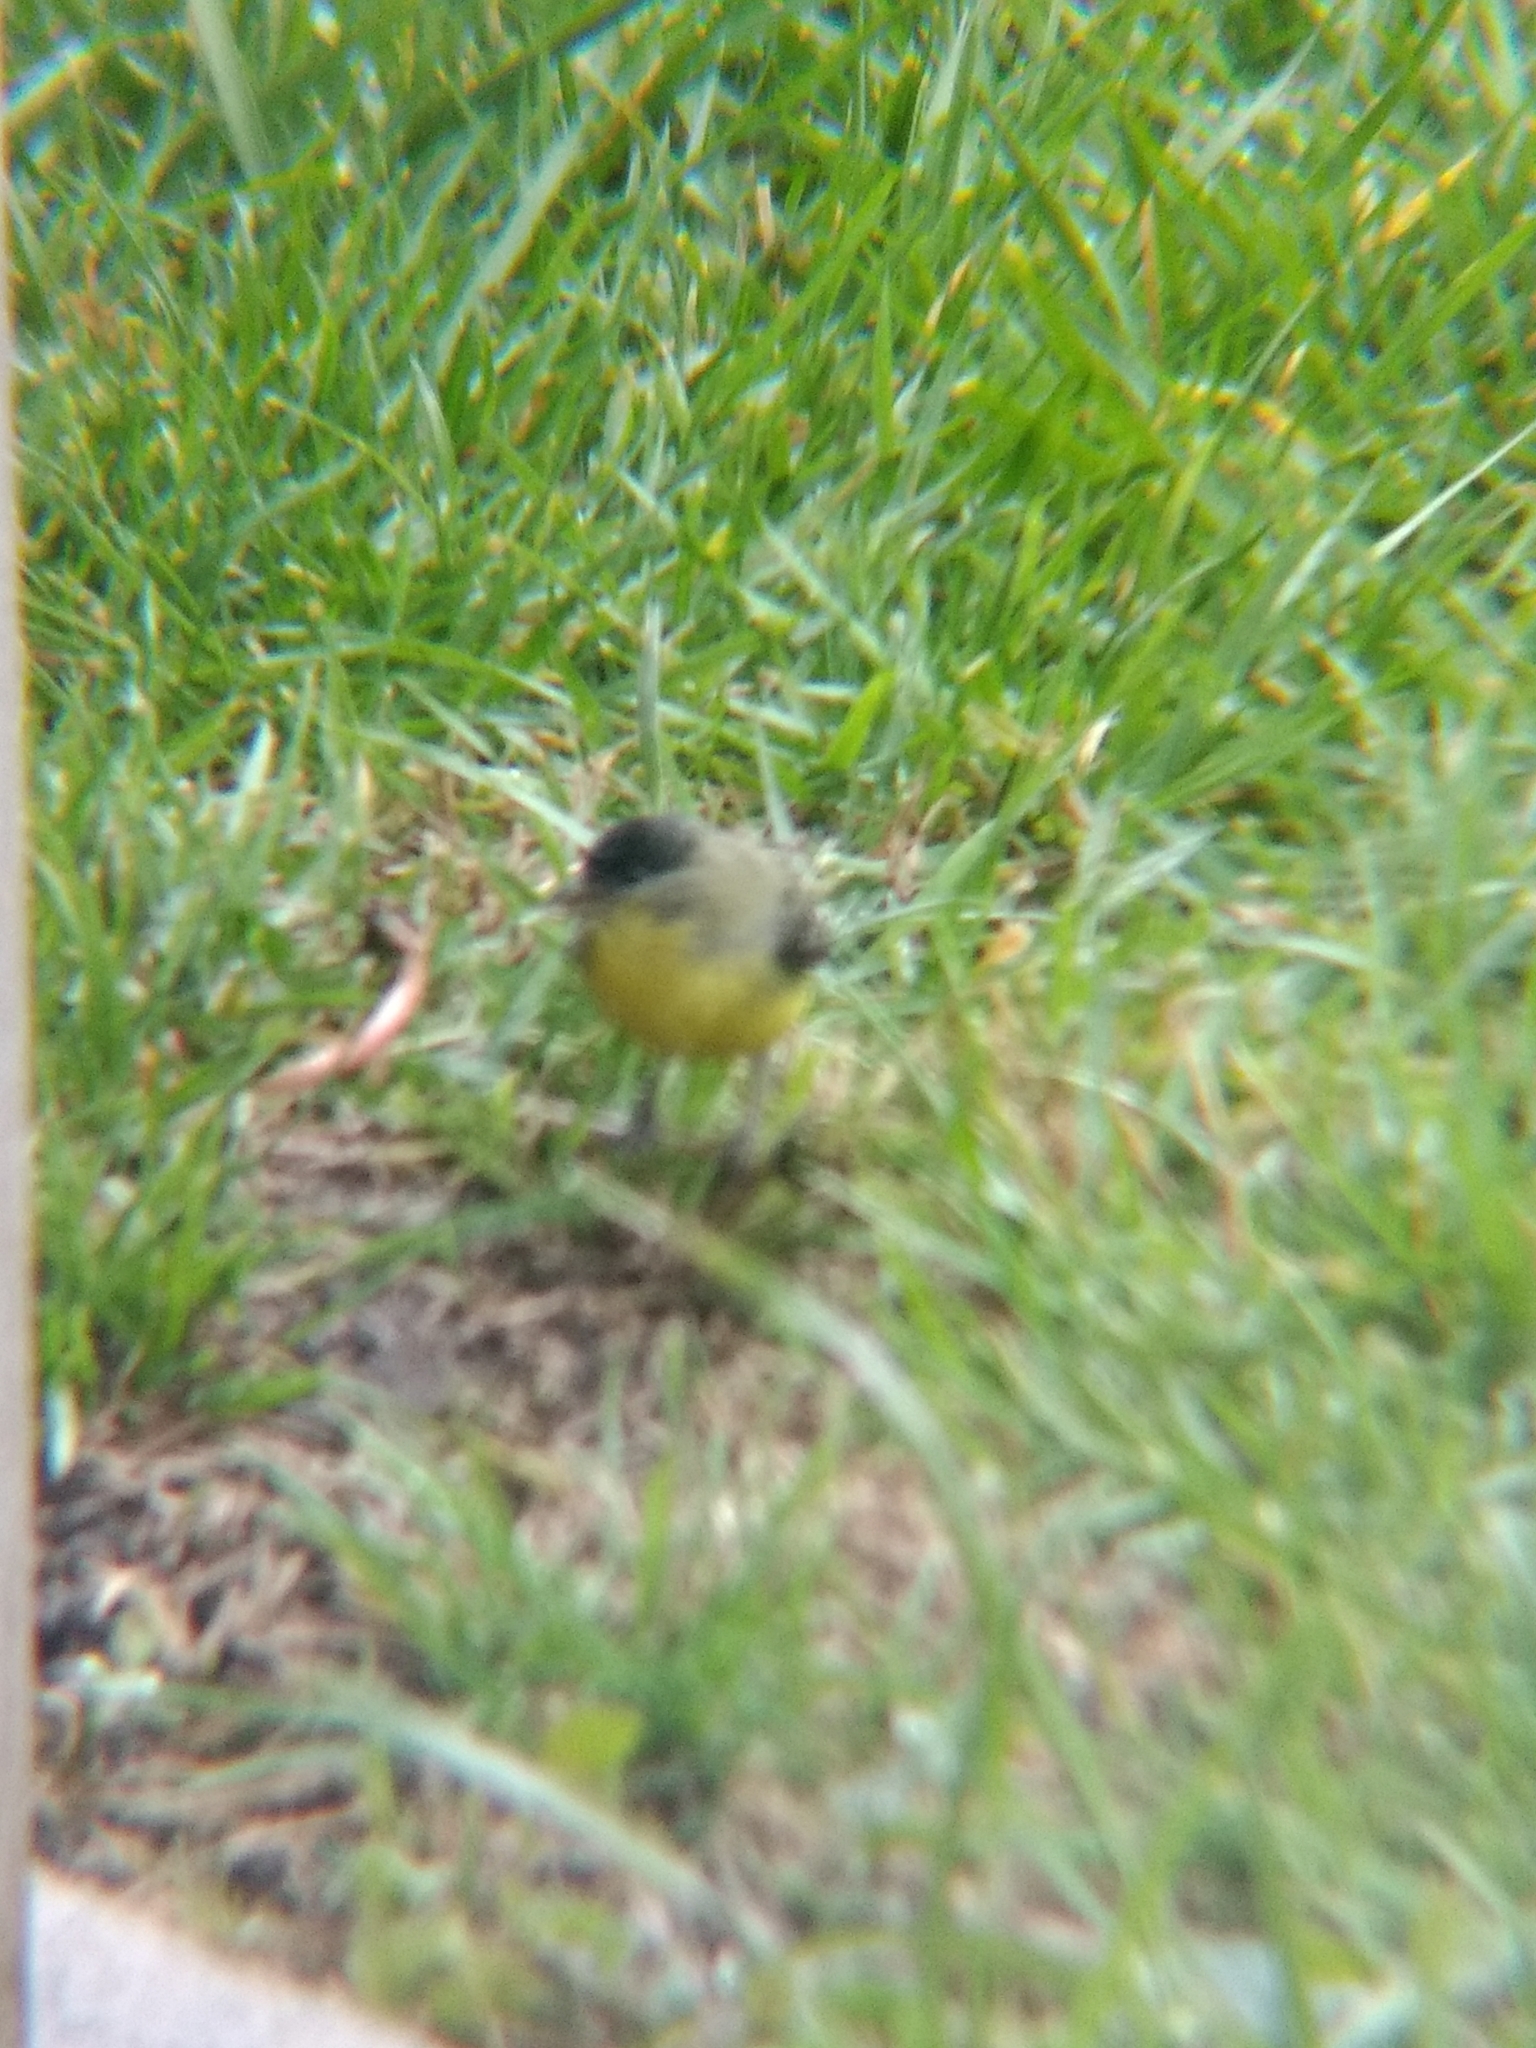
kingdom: Animalia
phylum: Chordata
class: Aves
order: Passeriformes
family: Fringillidae
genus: Spinus
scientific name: Spinus psaltria
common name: Lesser goldfinch
